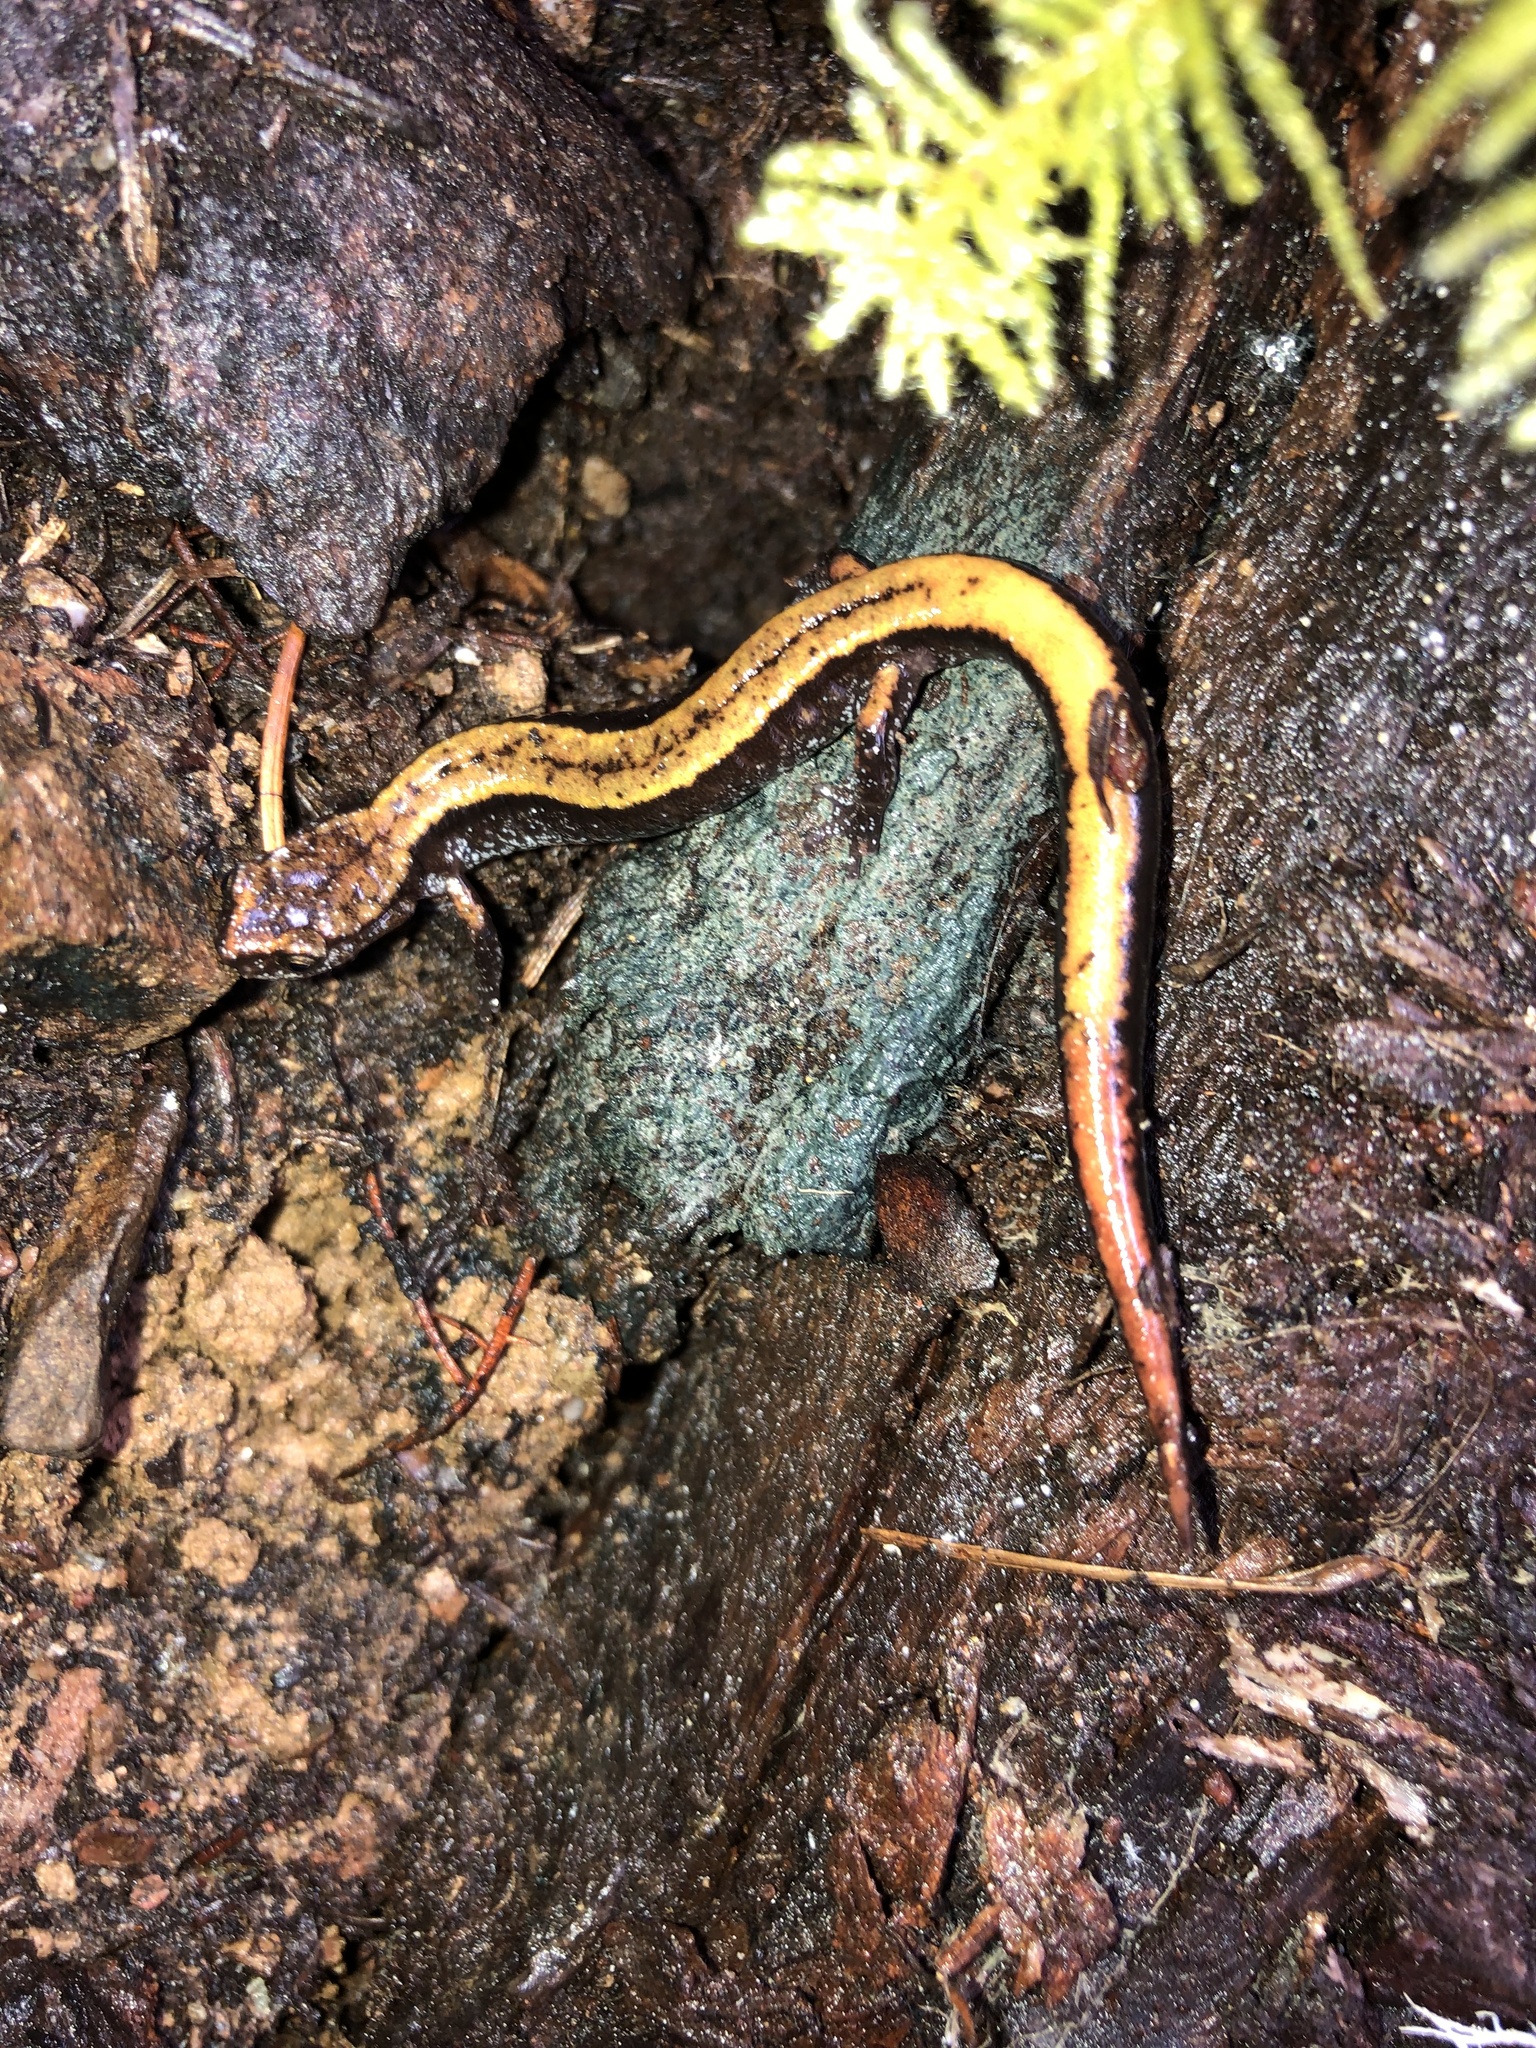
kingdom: Animalia
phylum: Chordata
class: Amphibia
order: Caudata
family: Plethodontidae
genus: Plethodon
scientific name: Plethodon vehiculum
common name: Western red-backed salamander
